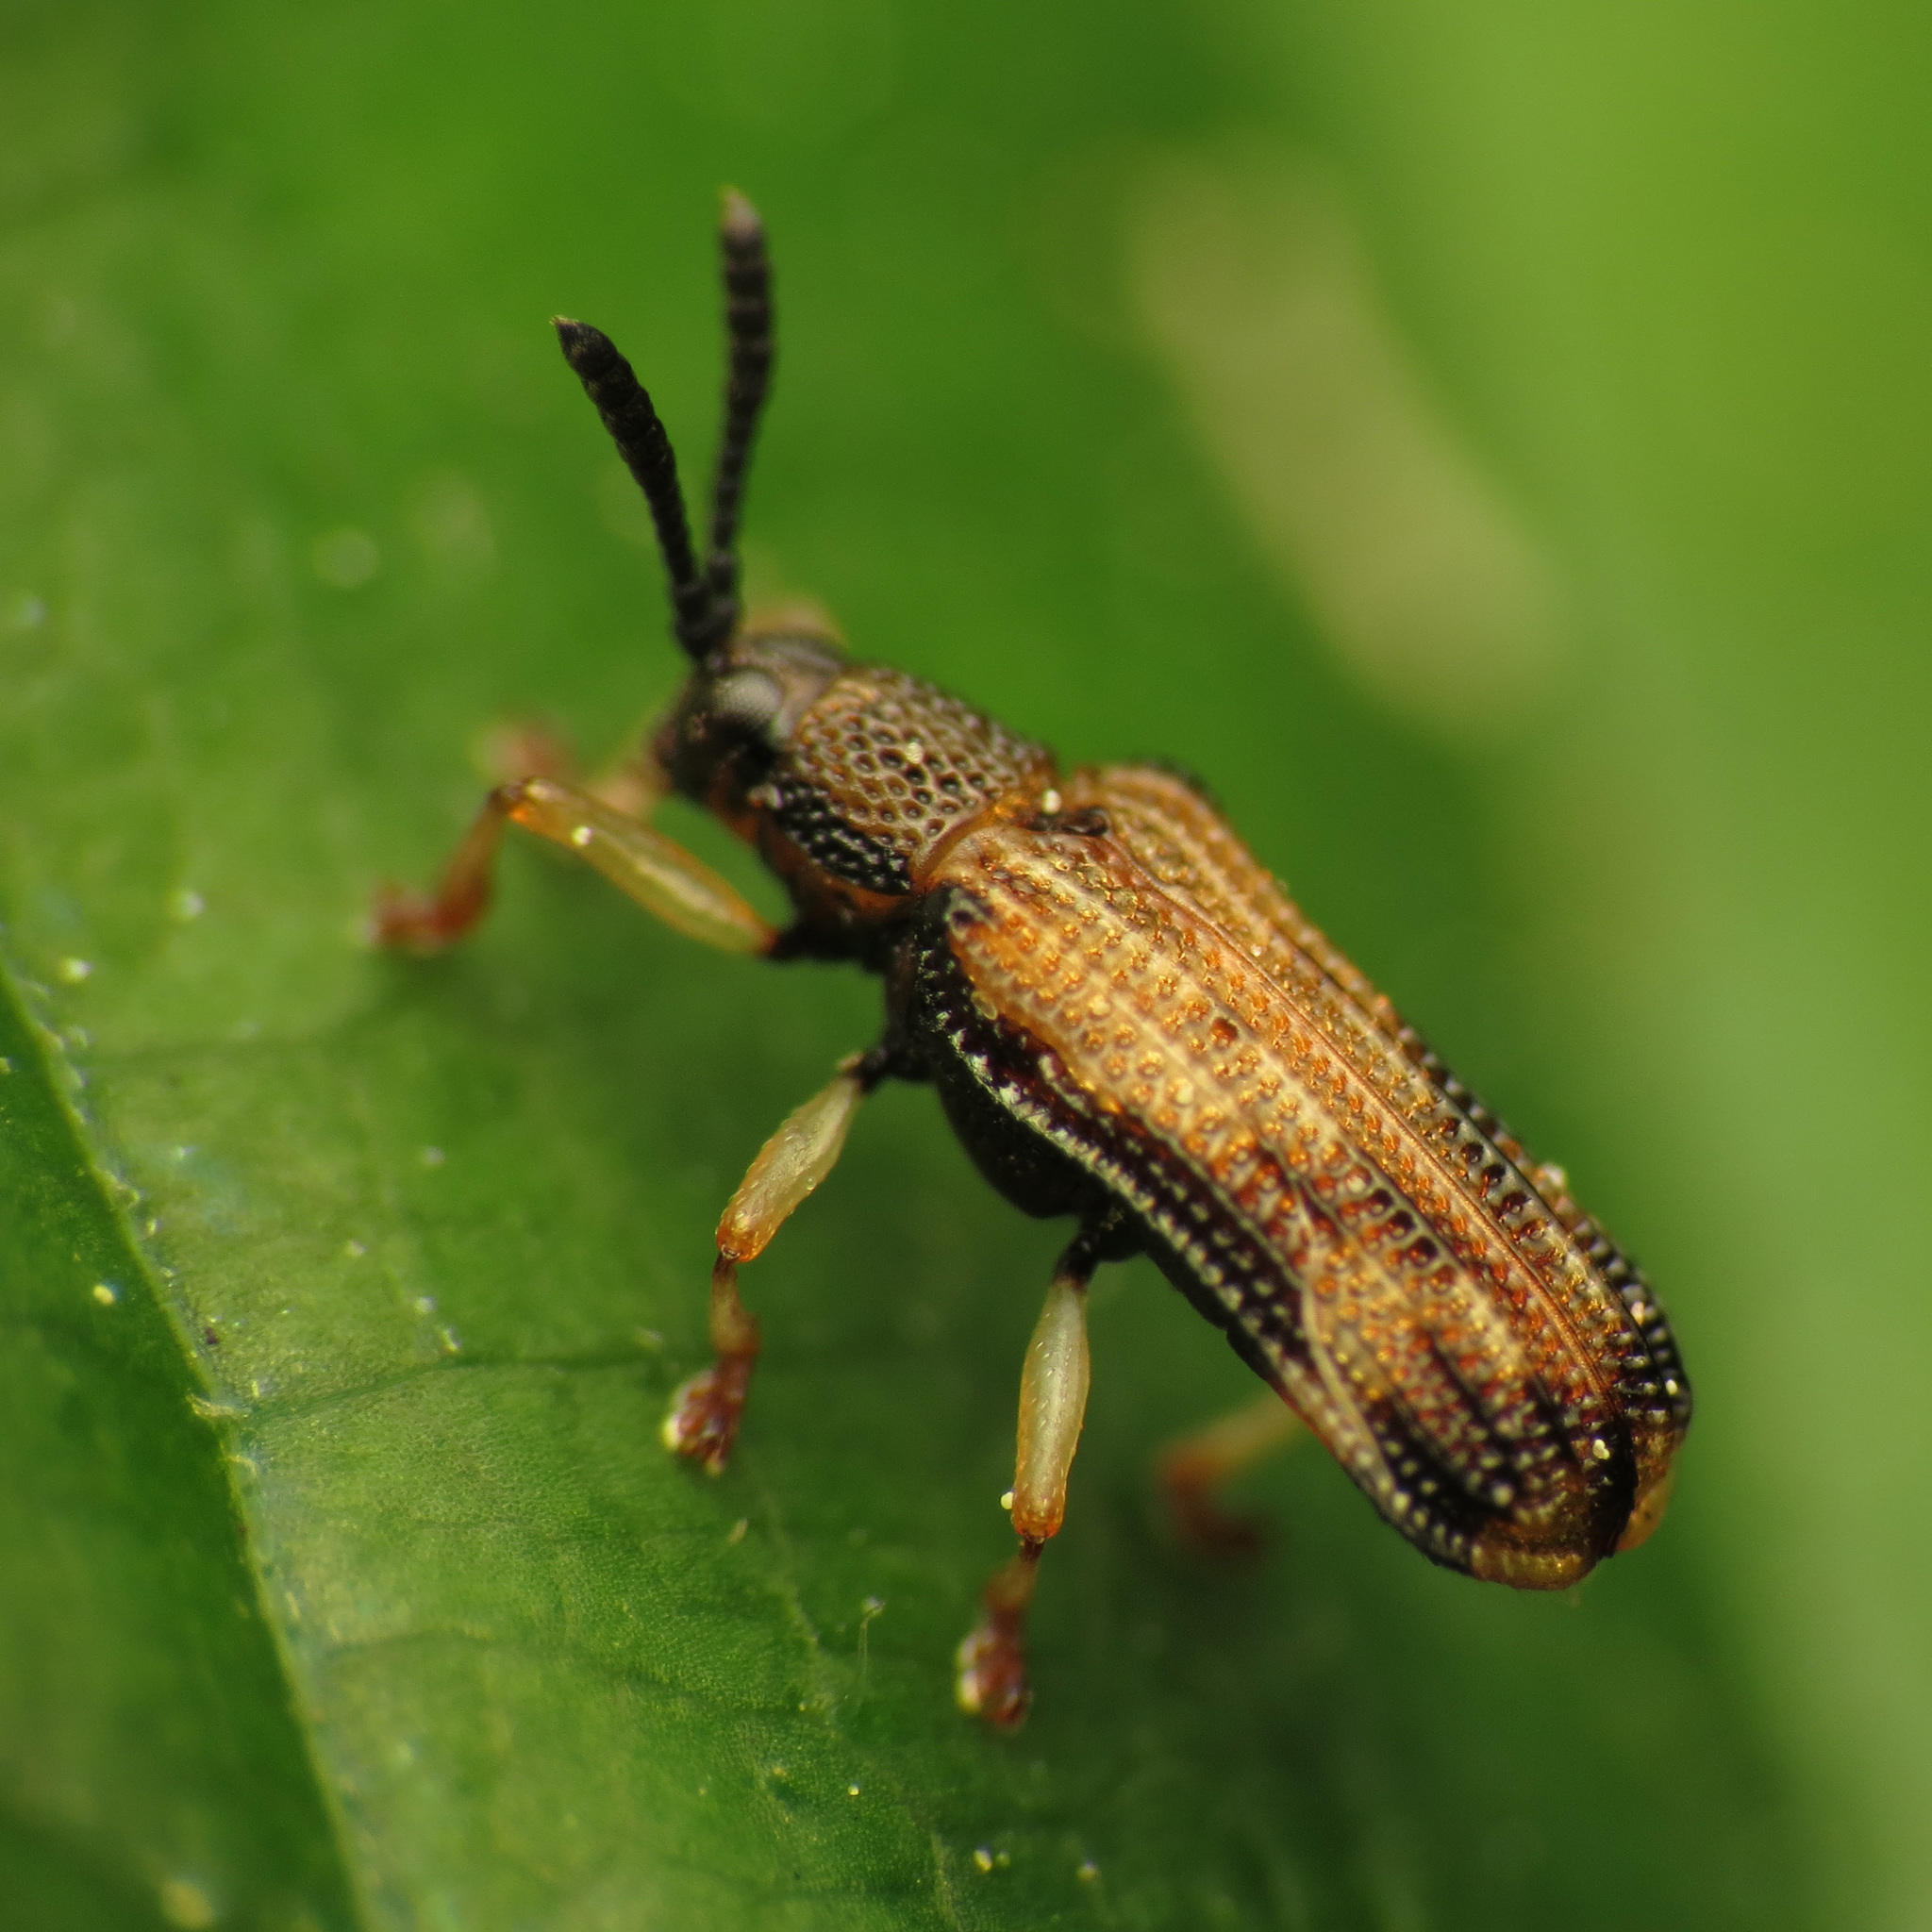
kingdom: Animalia
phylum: Arthropoda
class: Insecta
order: Coleoptera
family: Chrysomelidae
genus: Sumitrosis
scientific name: Sumitrosis inaequalis
